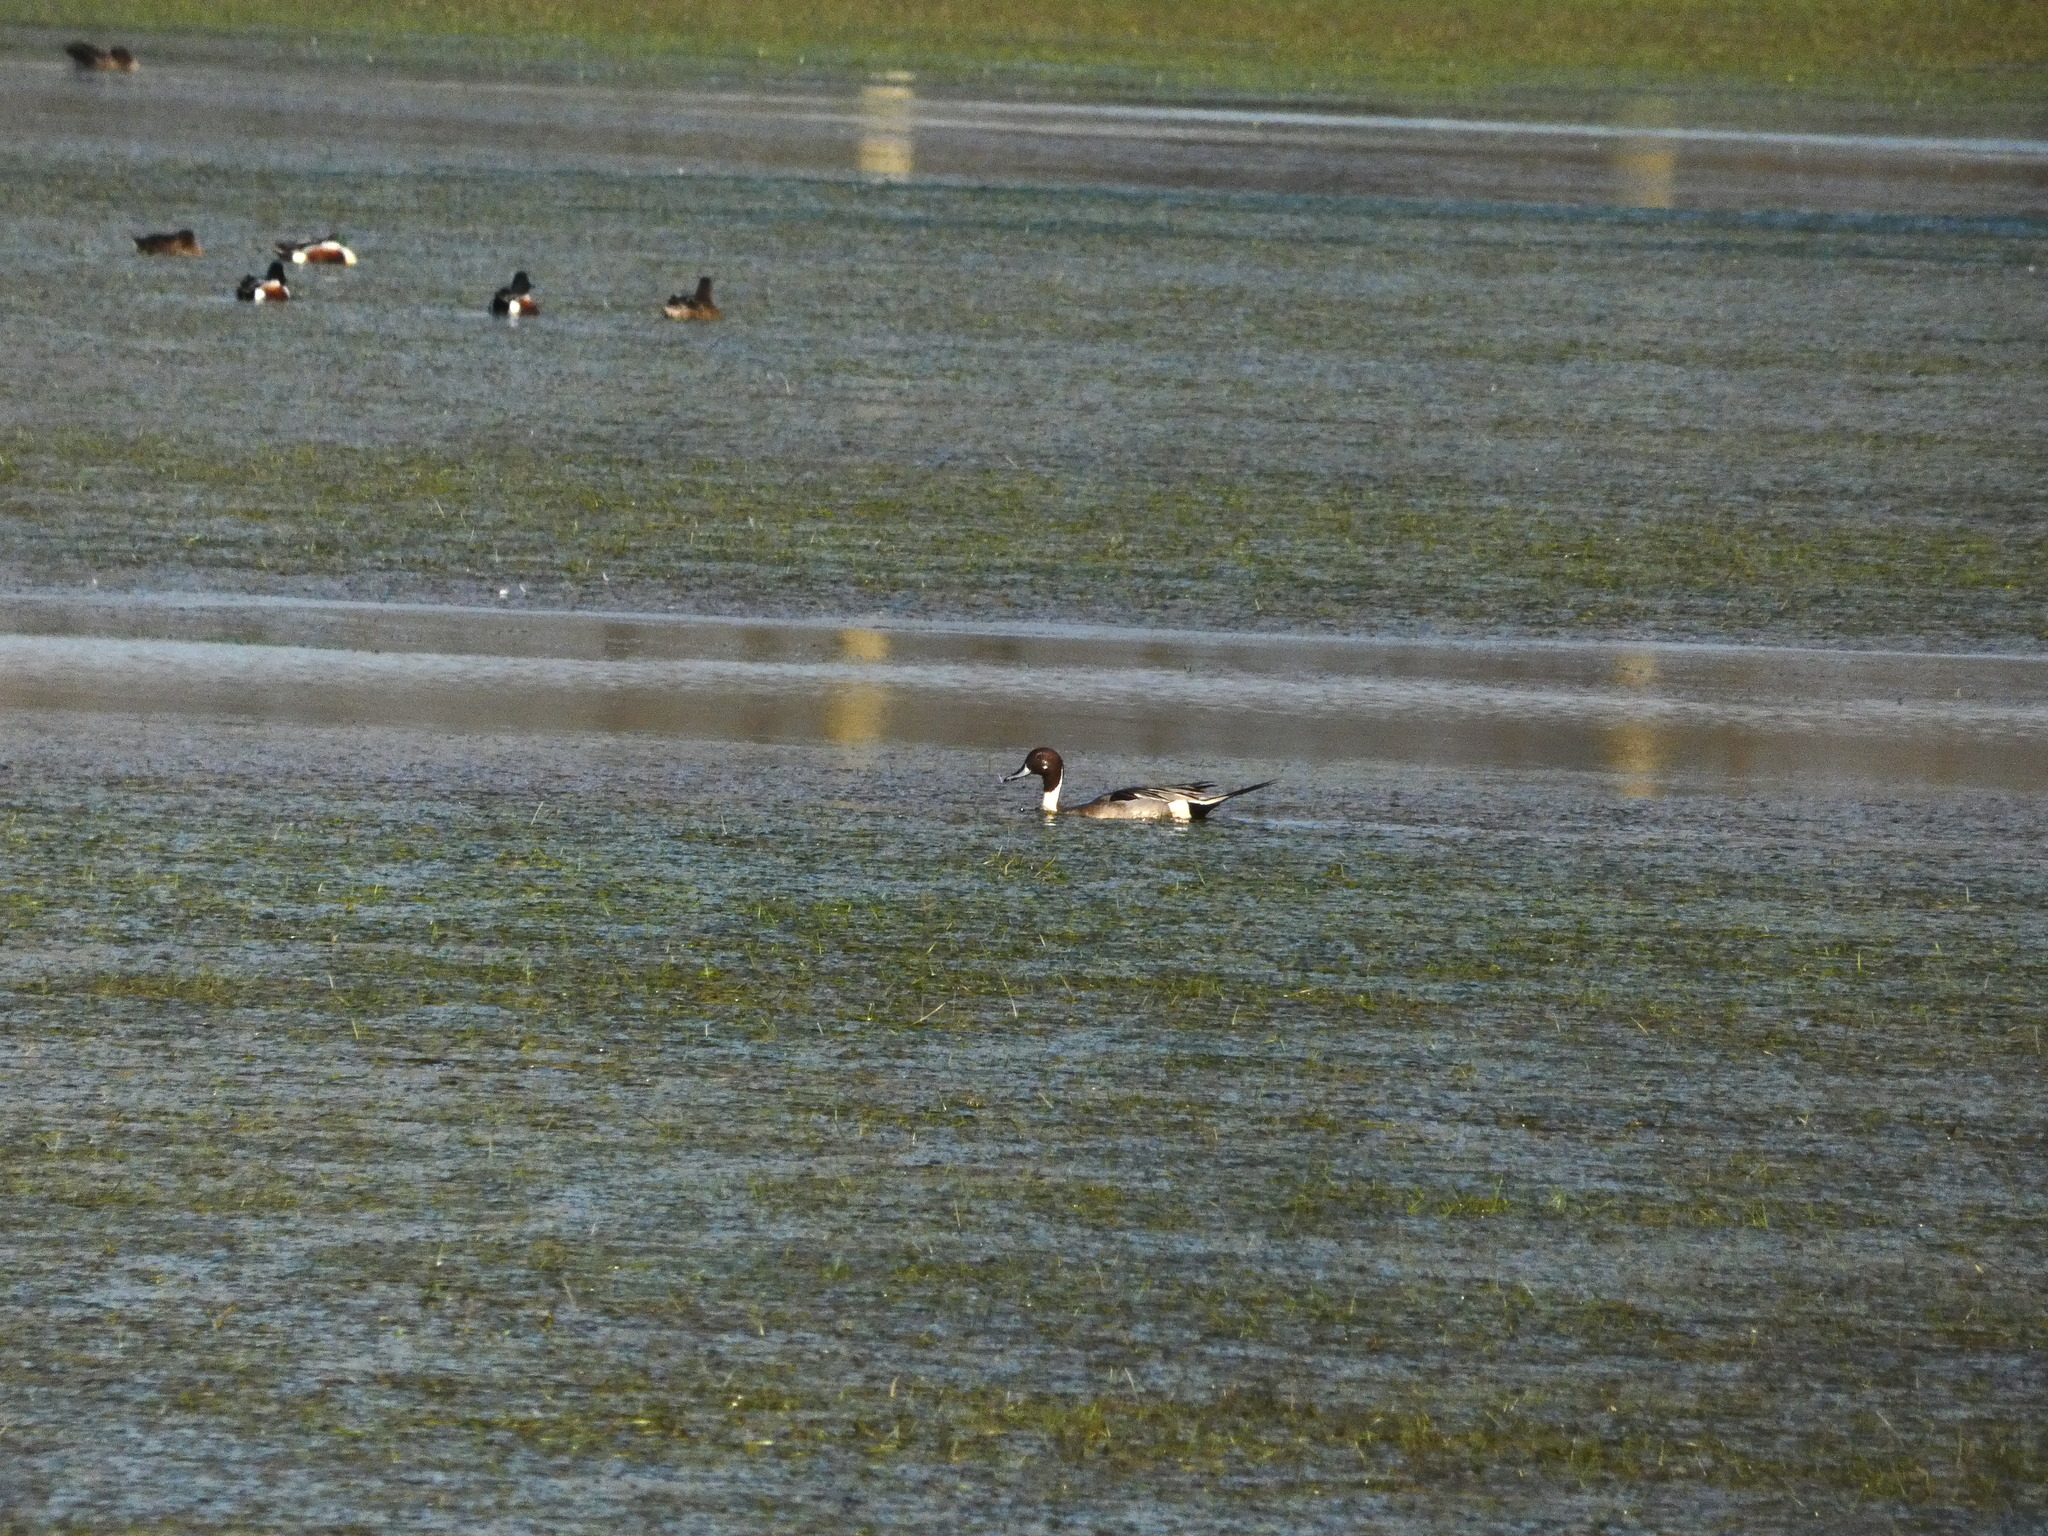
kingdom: Animalia
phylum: Chordata
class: Aves
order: Anseriformes
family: Anatidae
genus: Anas
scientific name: Anas acuta
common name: Northern pintail
